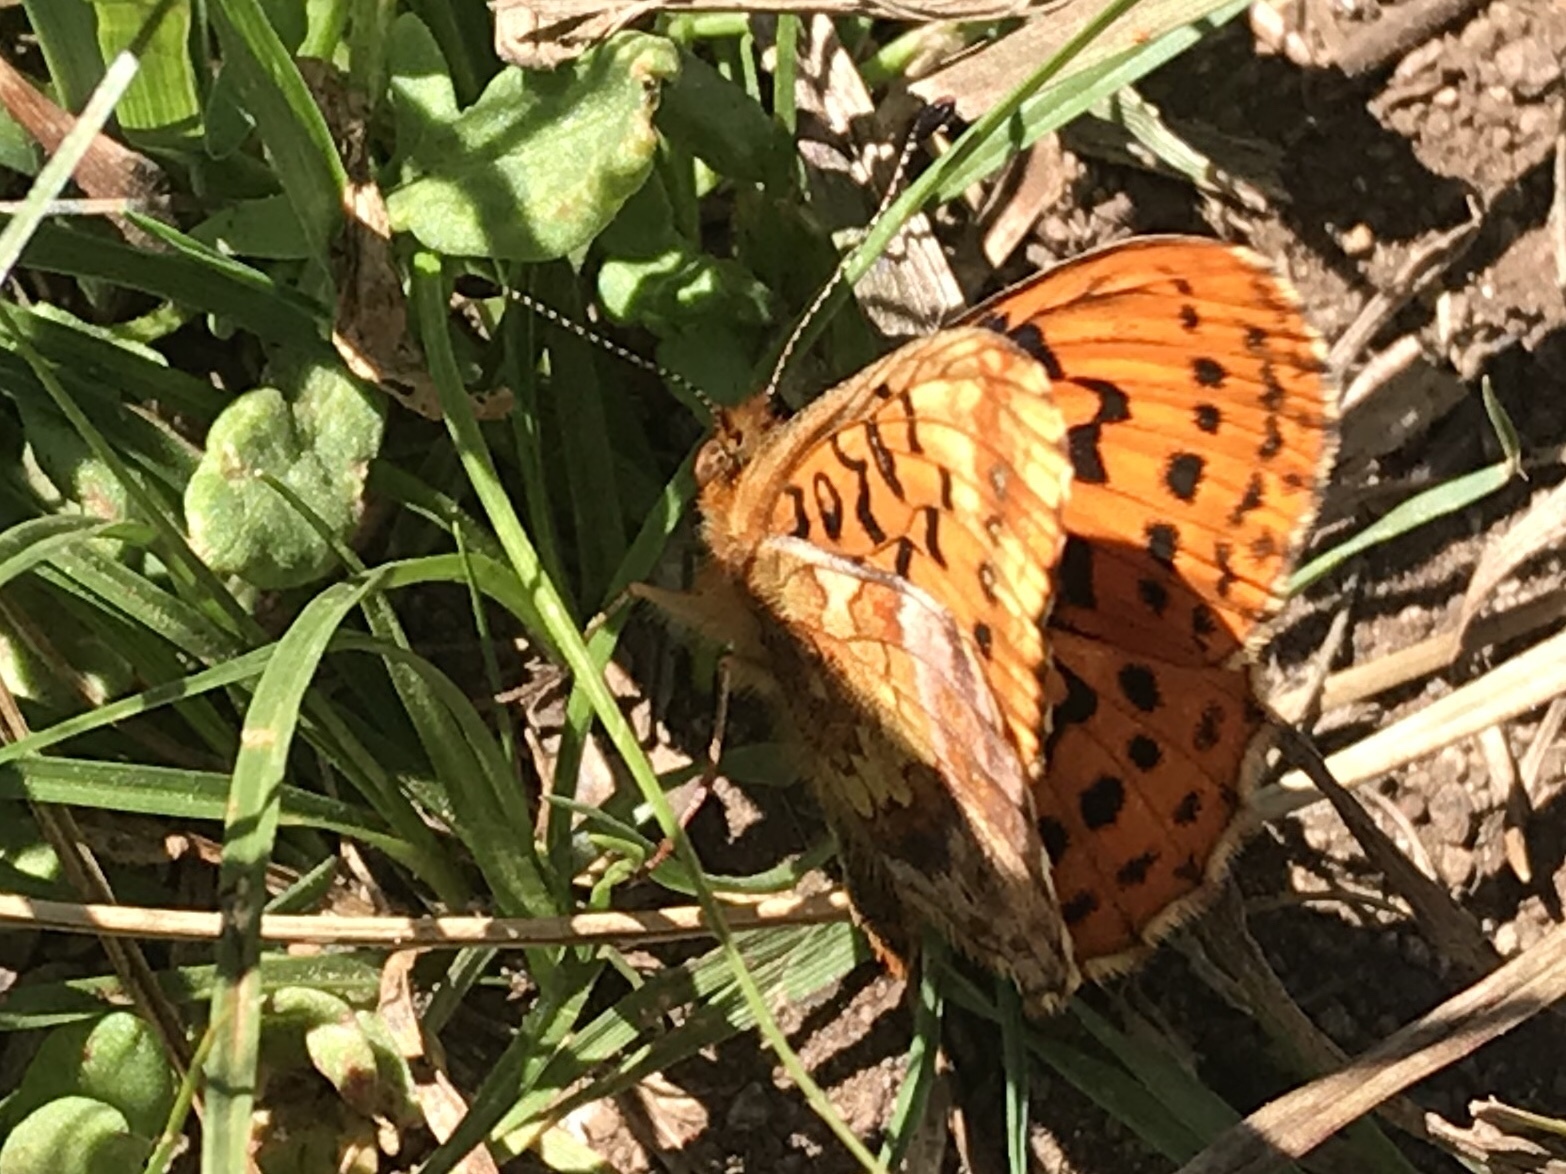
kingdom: Animalia
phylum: Arthropoda
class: Insecta
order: Lepidoptera
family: Nymphalidae
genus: Boloria
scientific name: Boloria epithore
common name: Pacific fritillary
